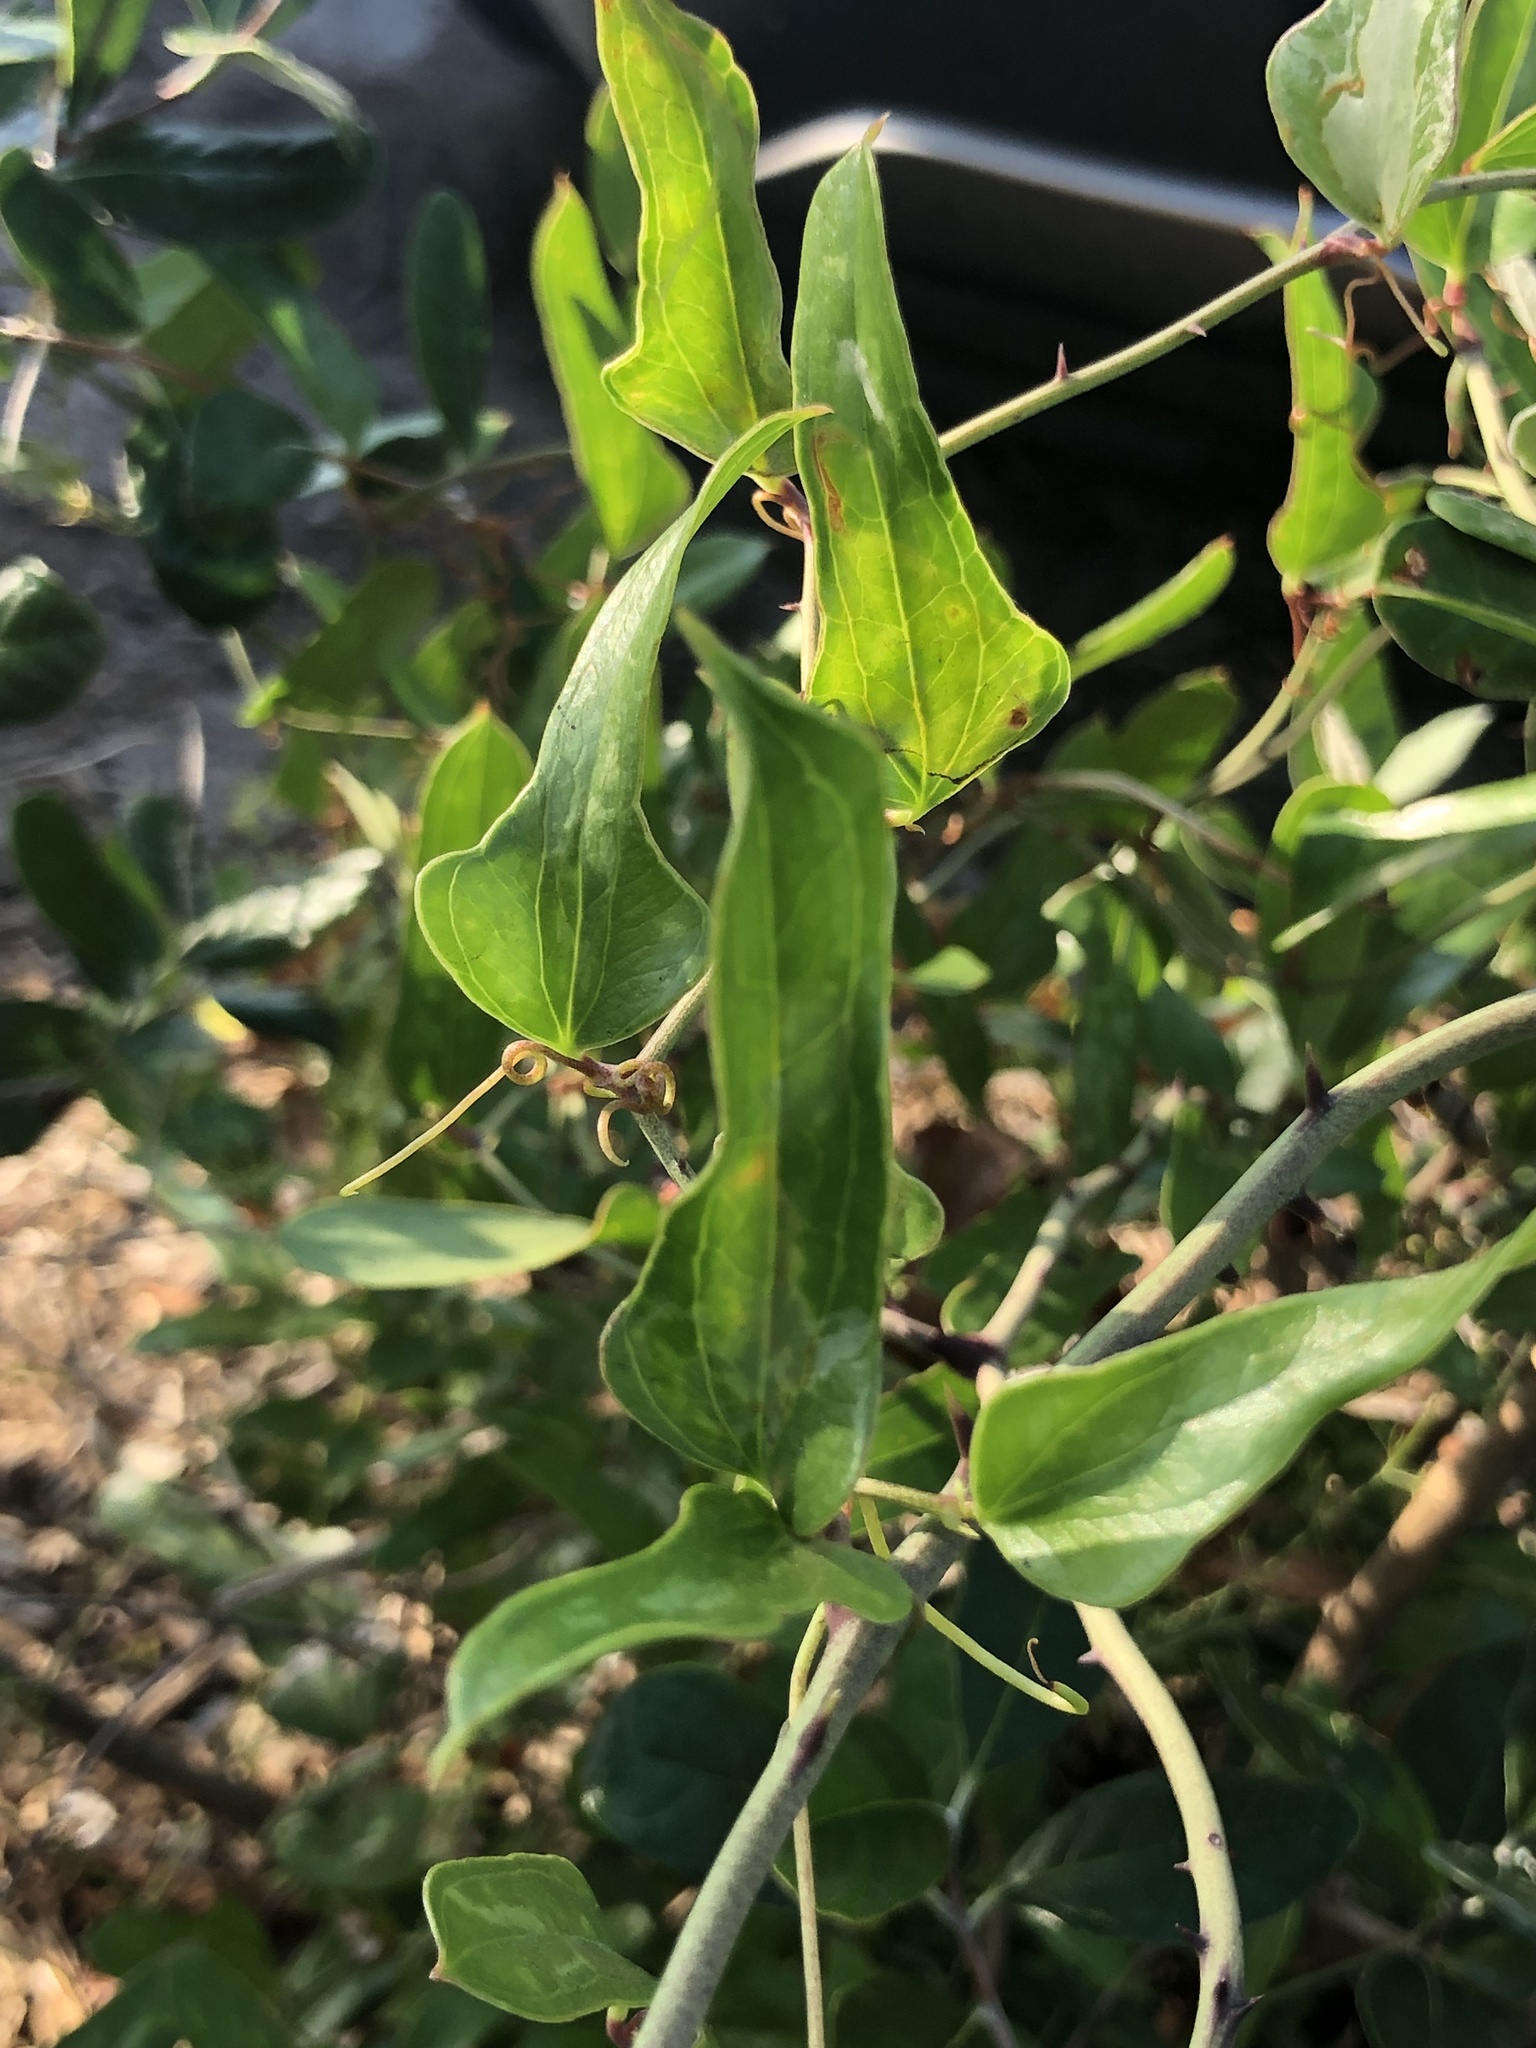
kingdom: Plantae
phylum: Tracheophyta
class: Liliopsida
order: Liliales
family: Smilacaceae
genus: Smilax
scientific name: Smilax auriculata
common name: Wild bamboo
